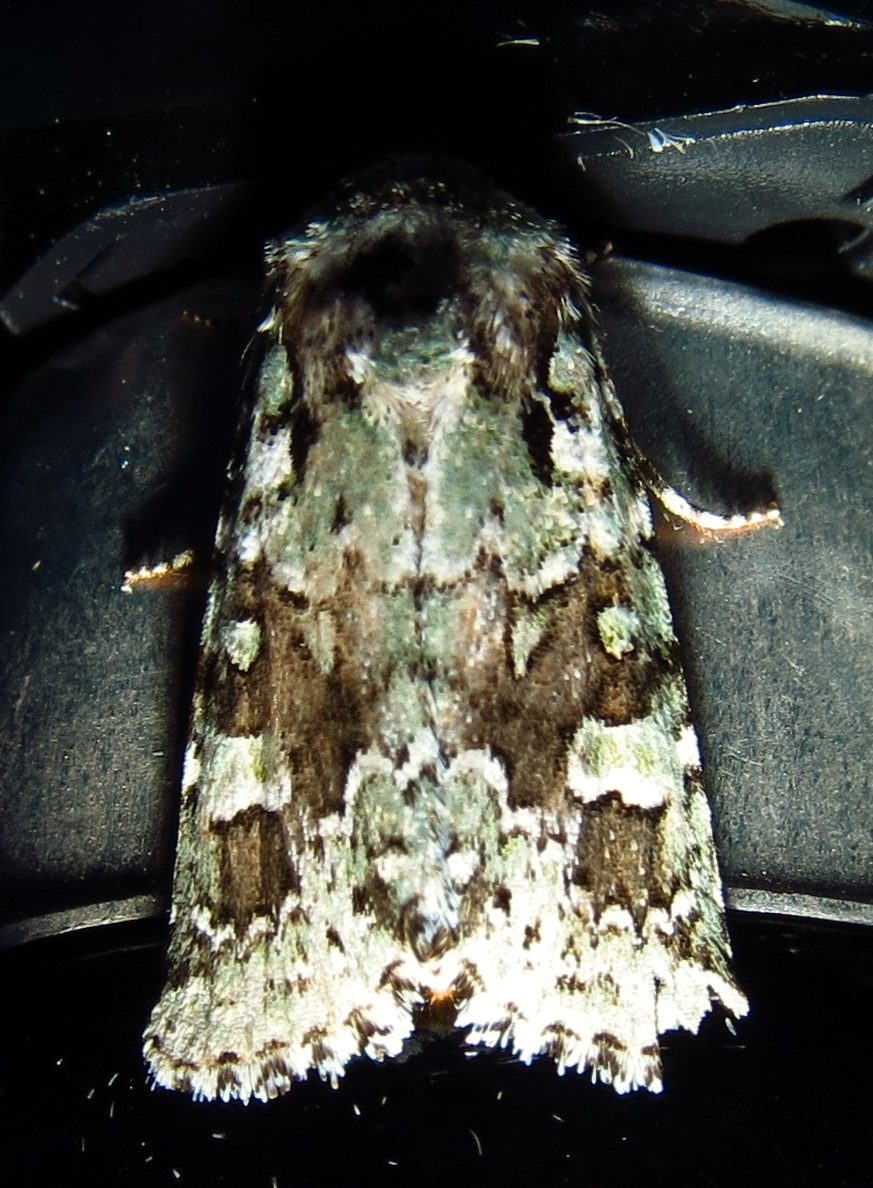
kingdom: Animalia
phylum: Arthropoda
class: Insecta
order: Lepidoptera
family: Noctuidae
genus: Lacinipolia
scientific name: Lacinipolia laudabilis
